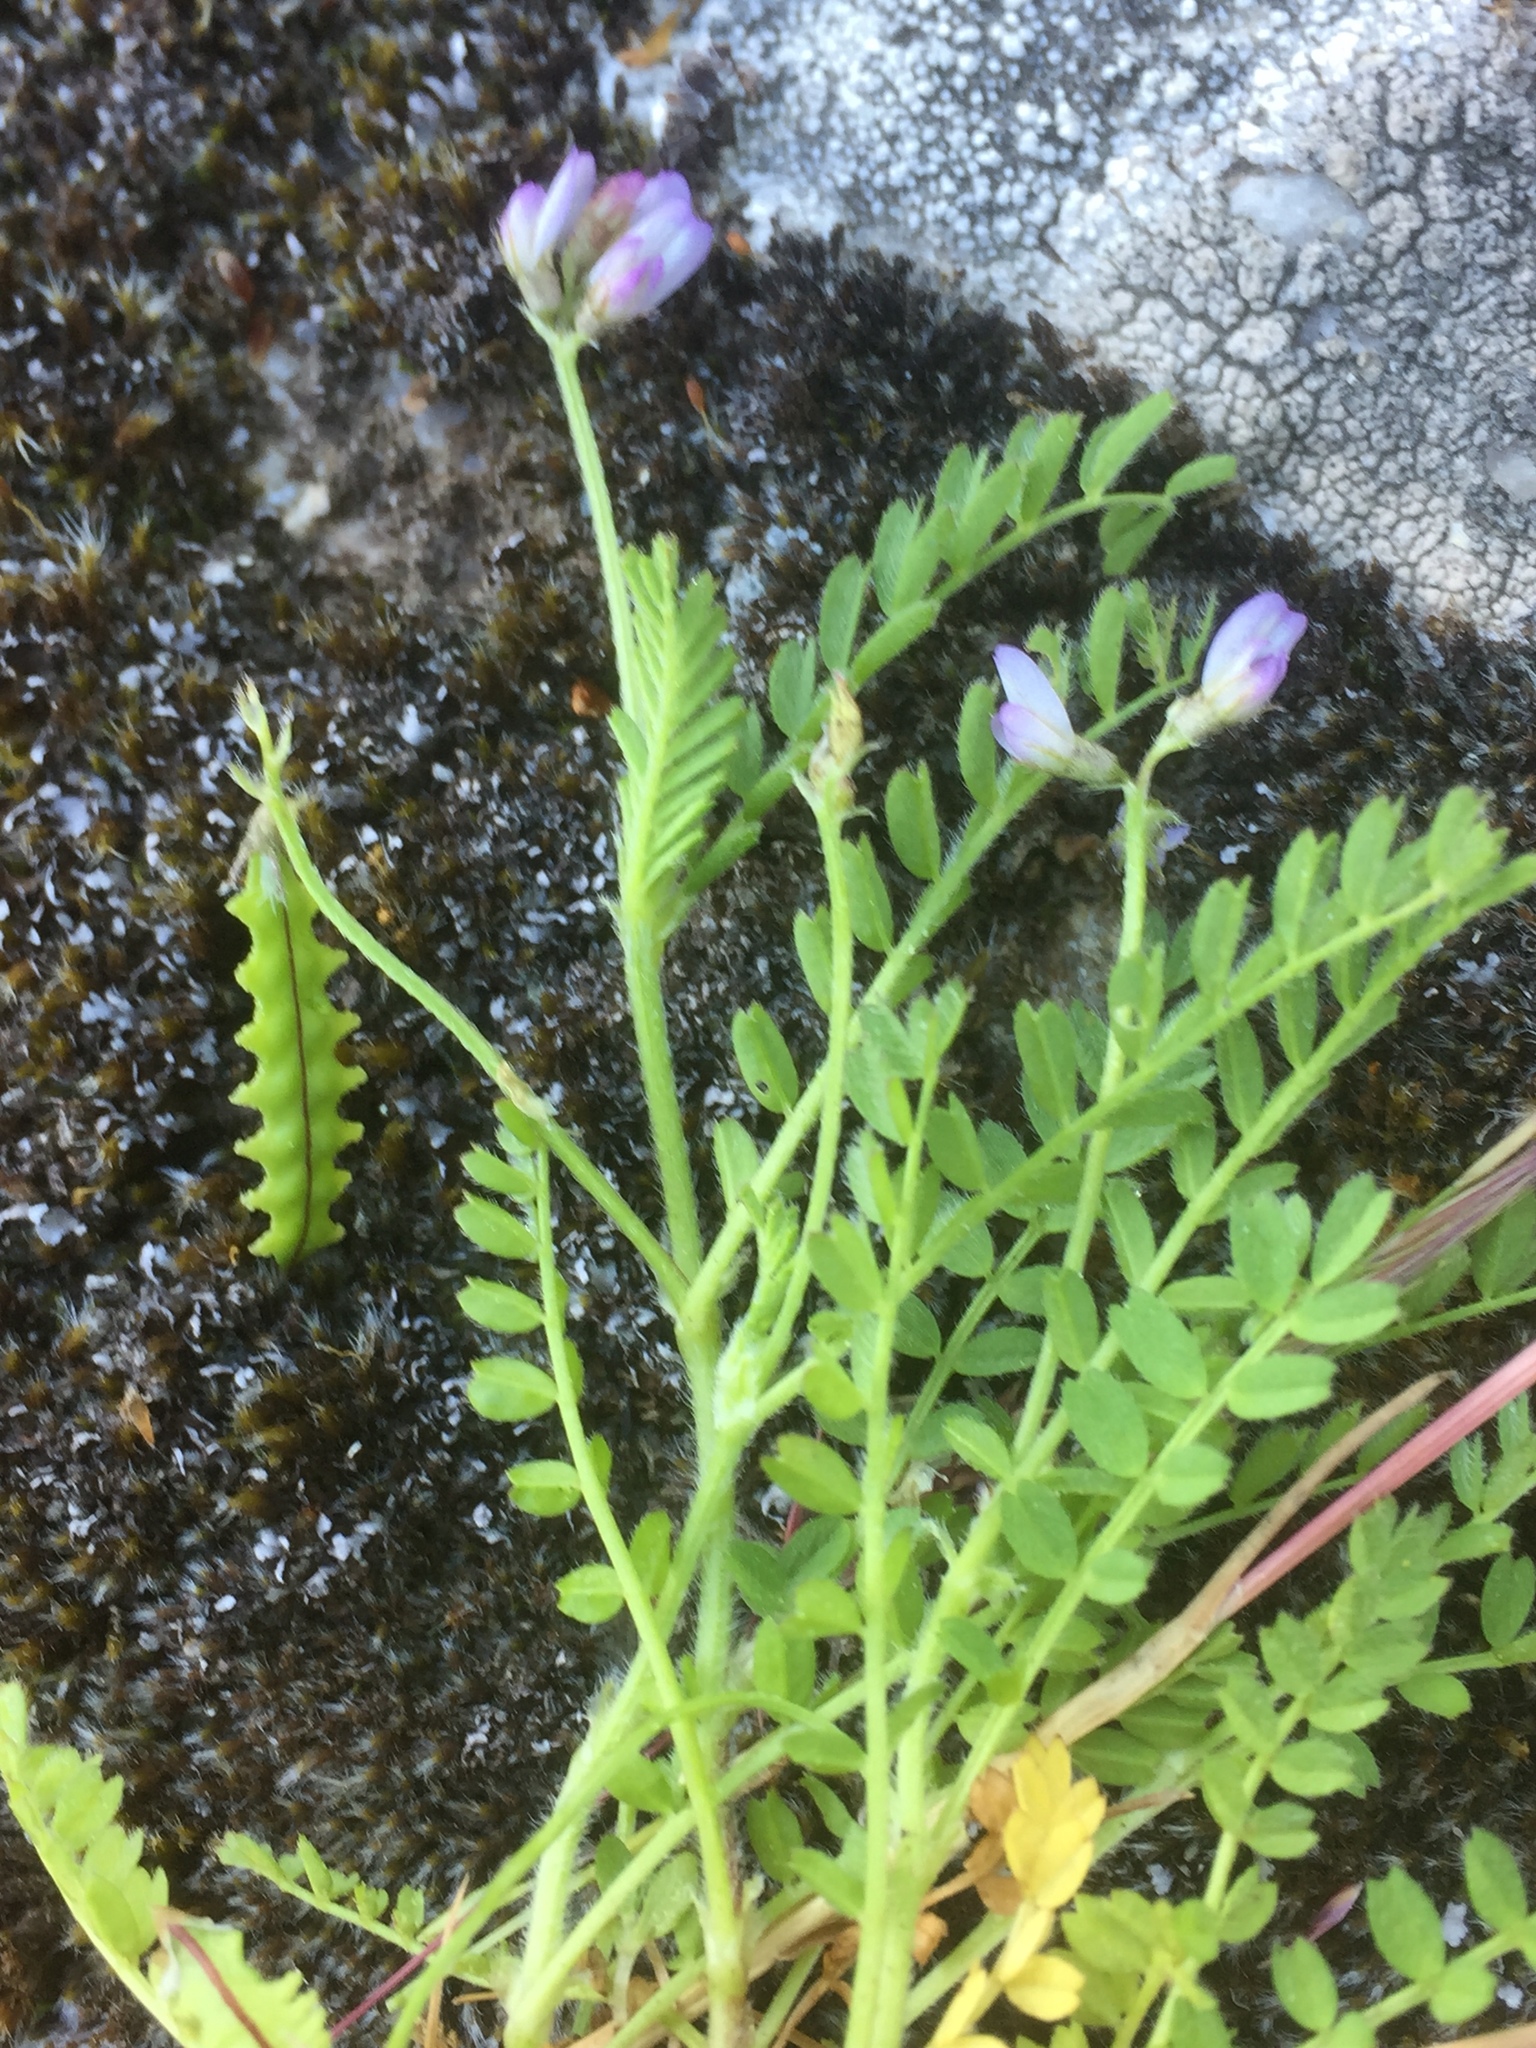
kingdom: Plantae
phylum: Tracheophyta
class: Magnoliopsida
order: Fabales
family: Fabaceae
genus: Biserrula
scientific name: Biserrula pelecinus
